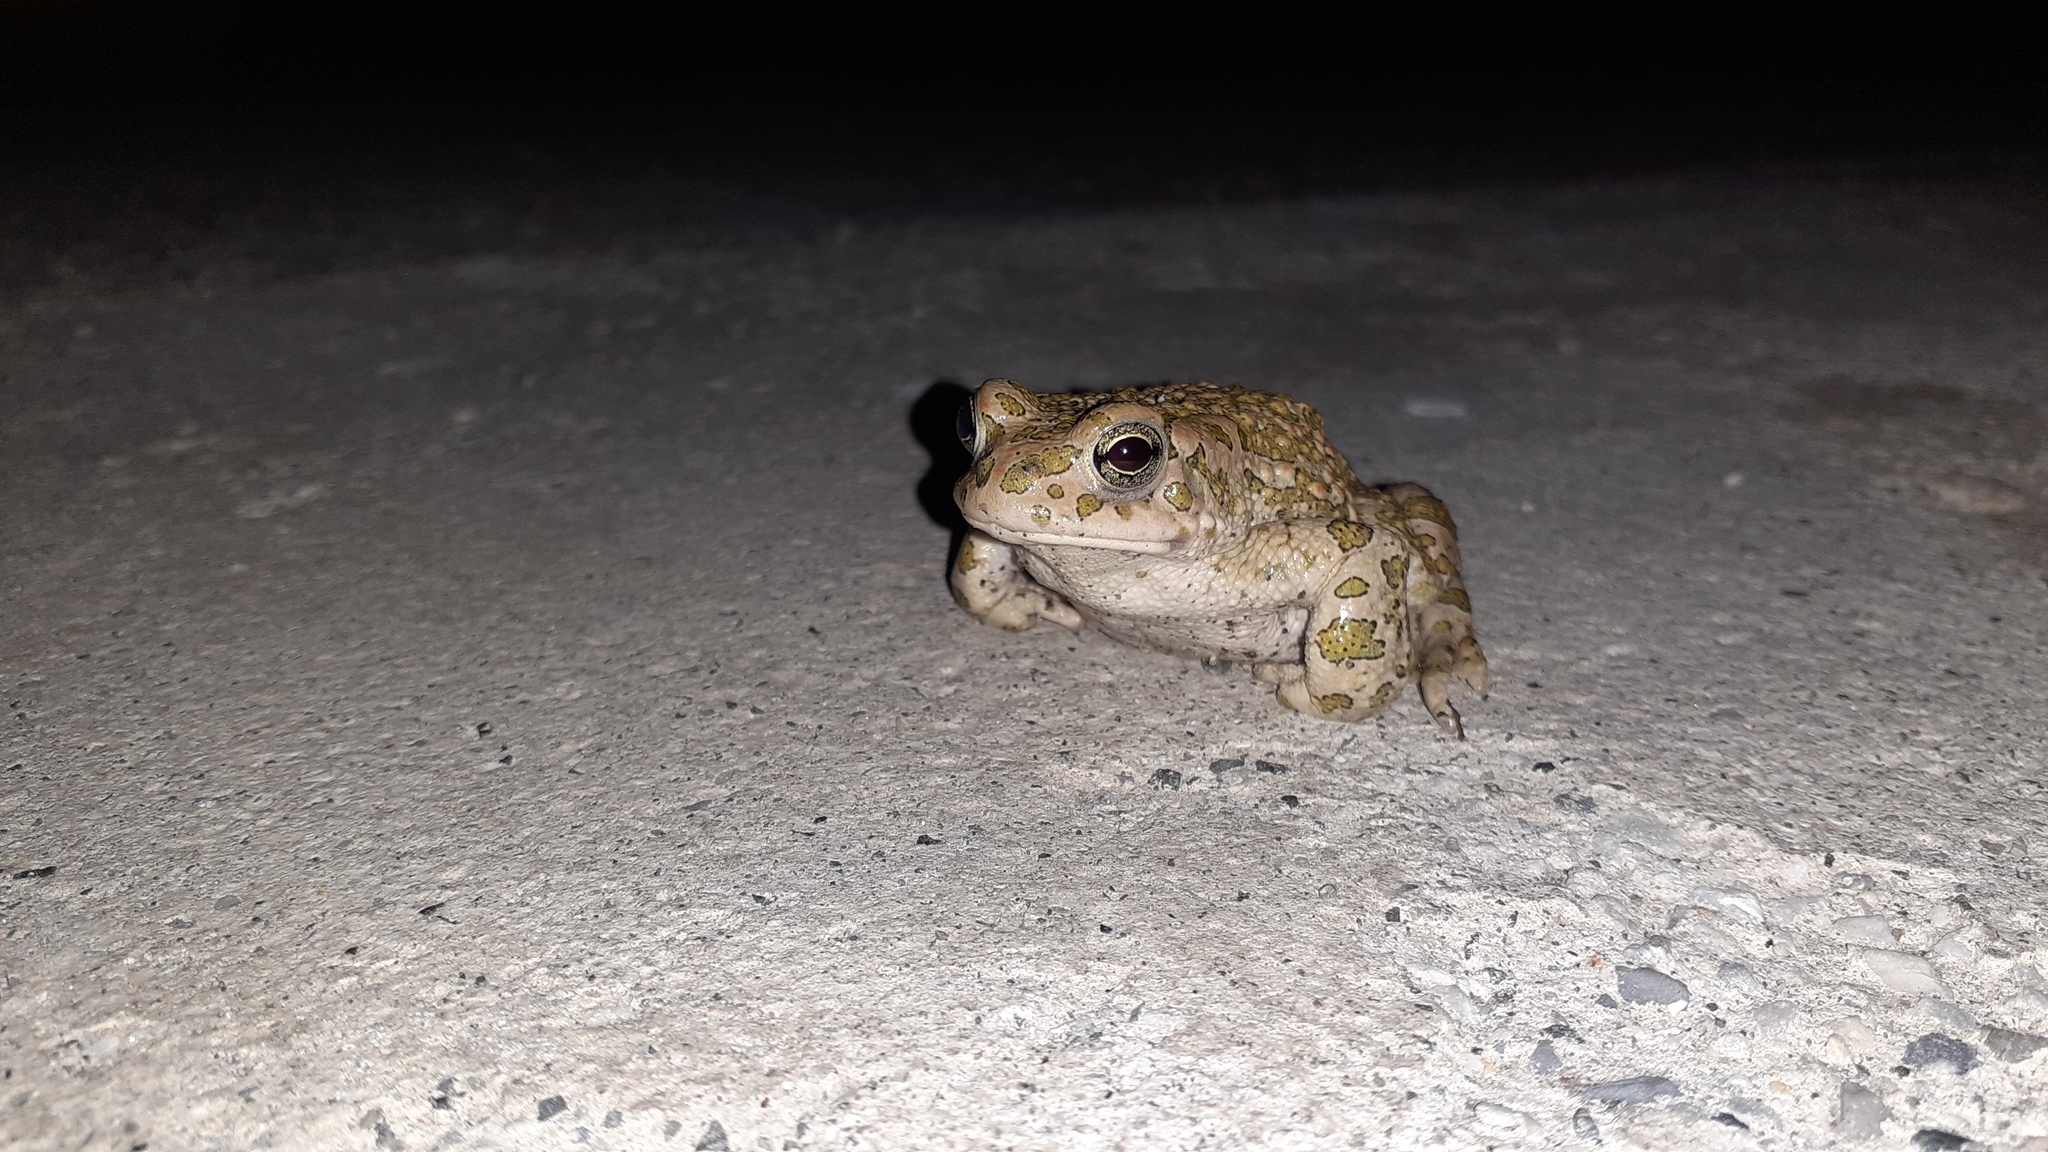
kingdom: Animalia
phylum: Chordata
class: Amphibia
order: Anura
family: Bufonidae
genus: Bufotes
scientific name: Bufotes viridis
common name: European green toad
